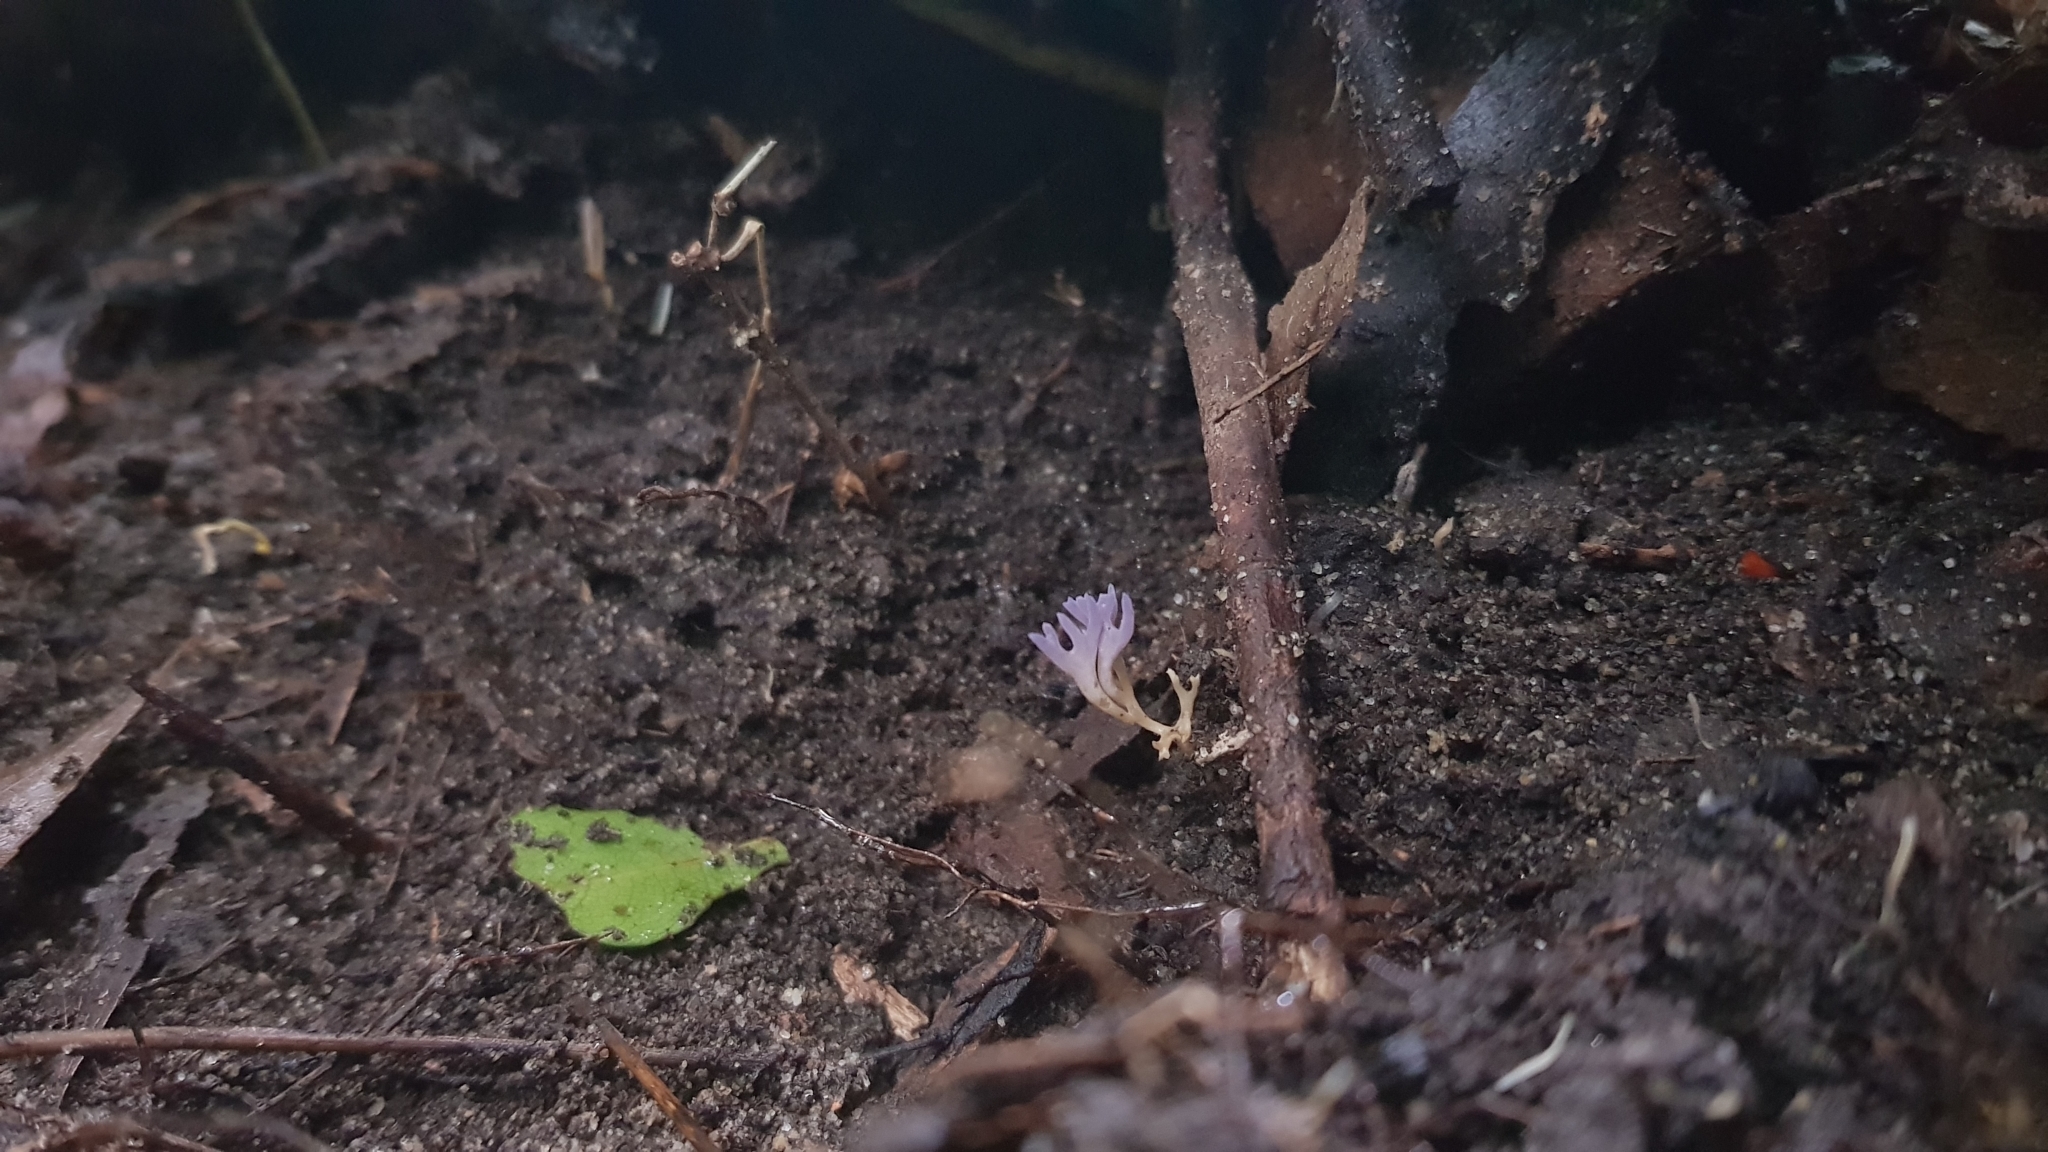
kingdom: Fungi
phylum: Basidiomycota
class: Agaricomycetes
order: Agaricales
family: Clavariaceae
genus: Ramariopsis
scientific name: Ramariopsis pulchella
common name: Lilac coral
